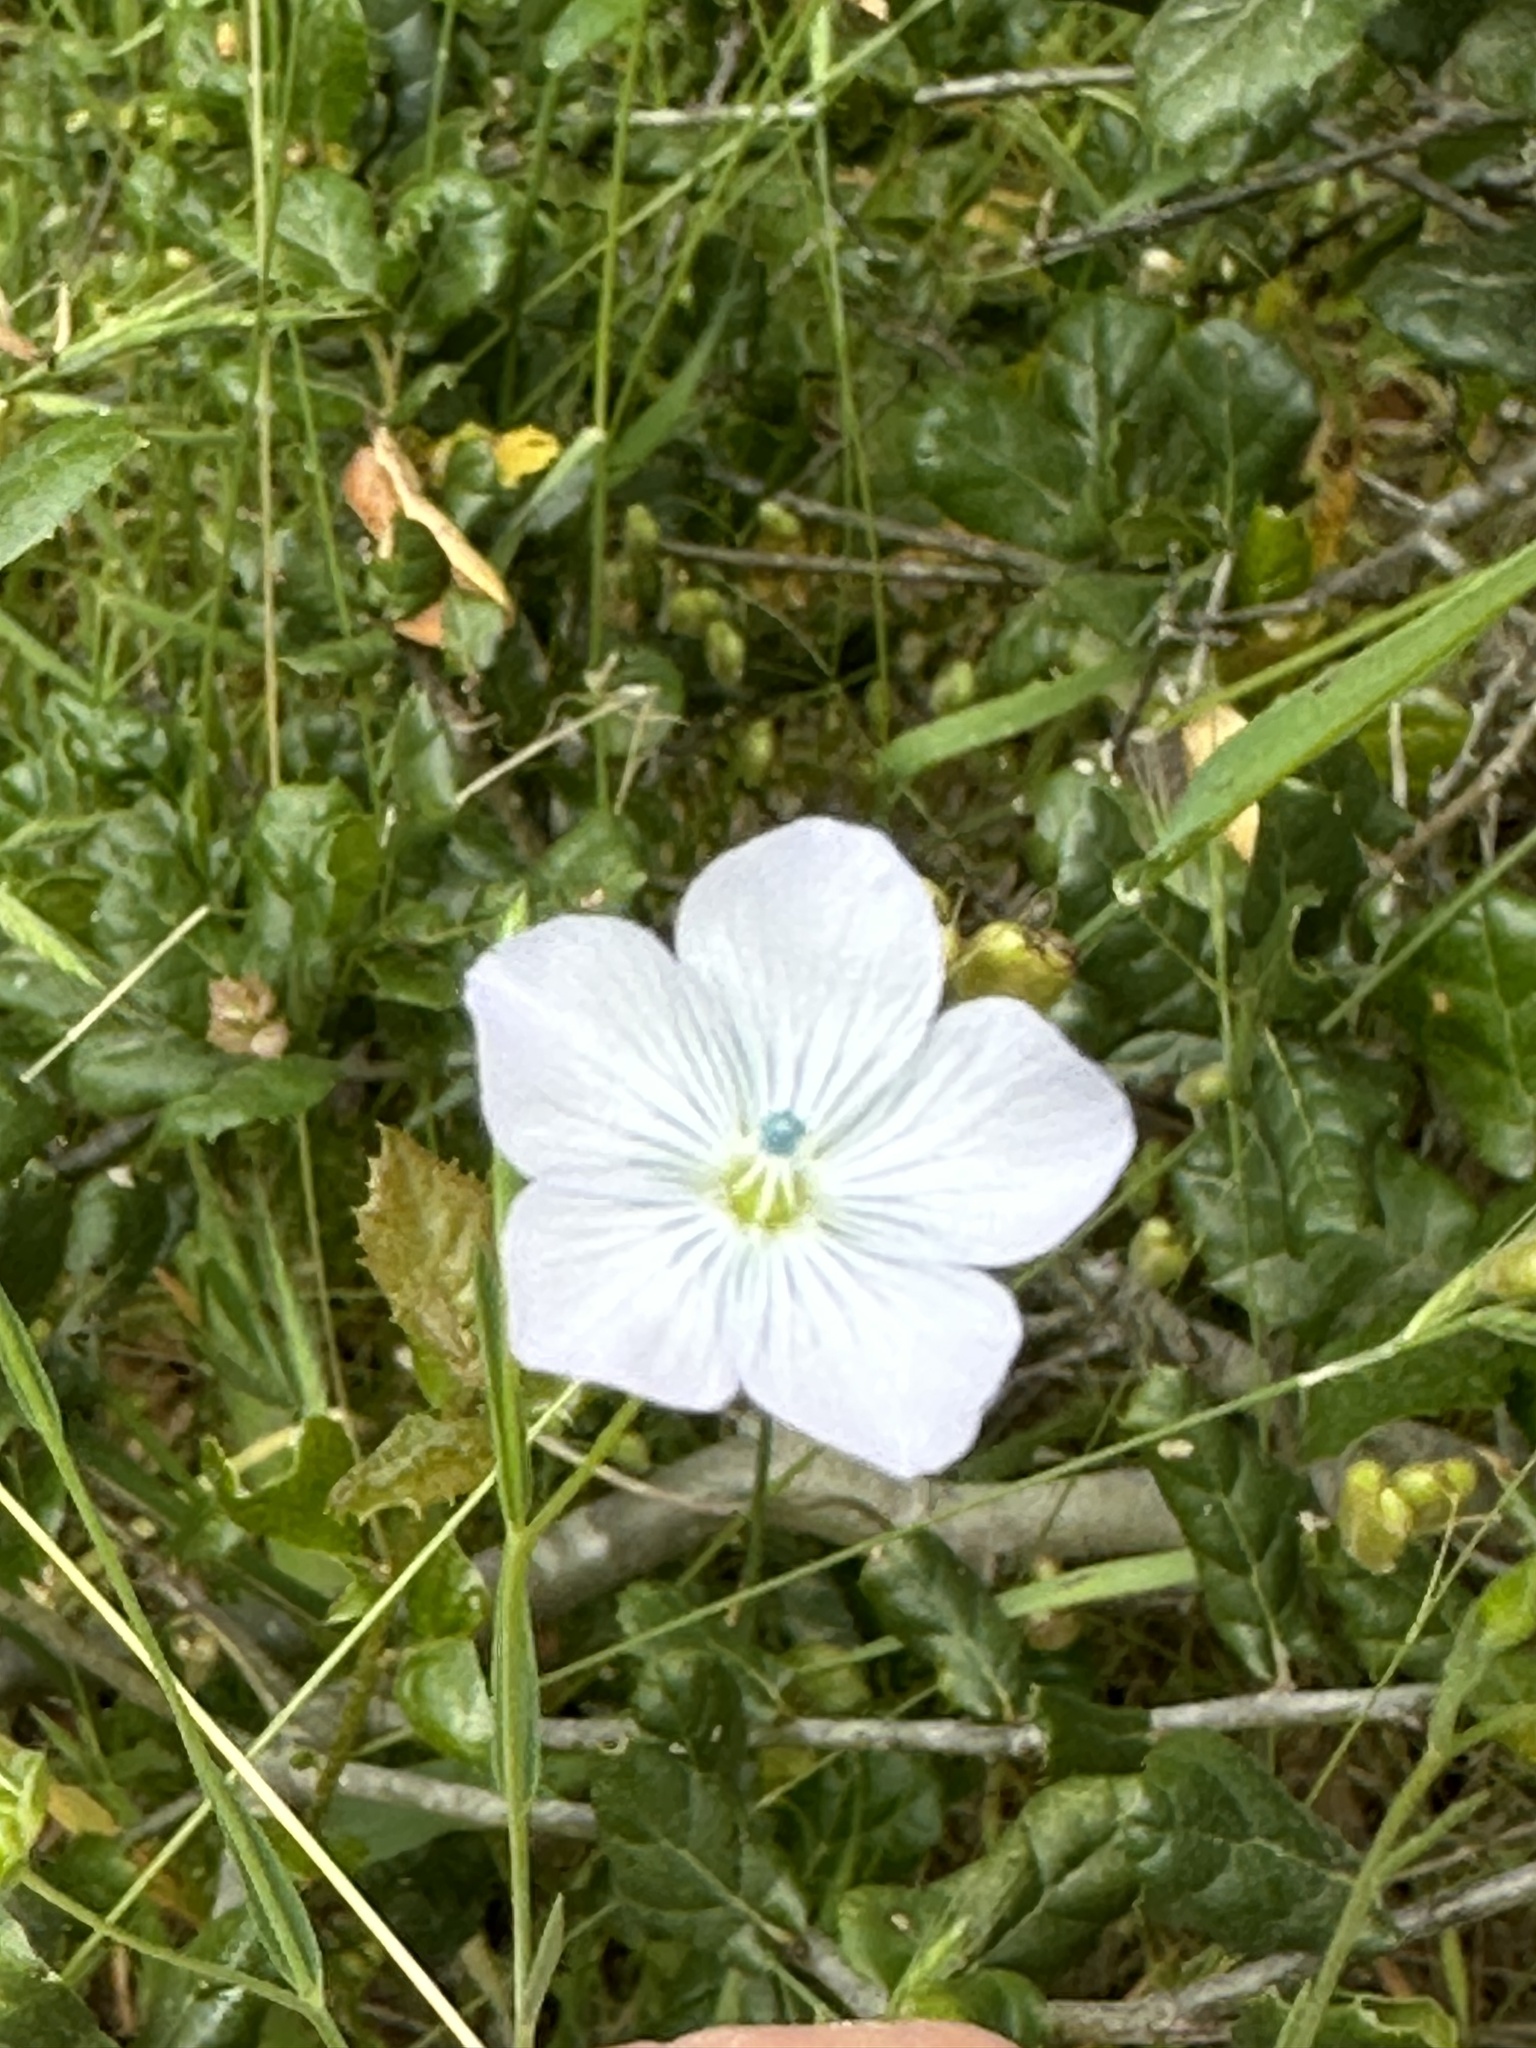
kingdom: Plantae
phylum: Tracheophyta
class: Magnoliopsida
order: Malpighiales
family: Linaceae
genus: Linum
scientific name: Linum bienne
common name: Pale flax
